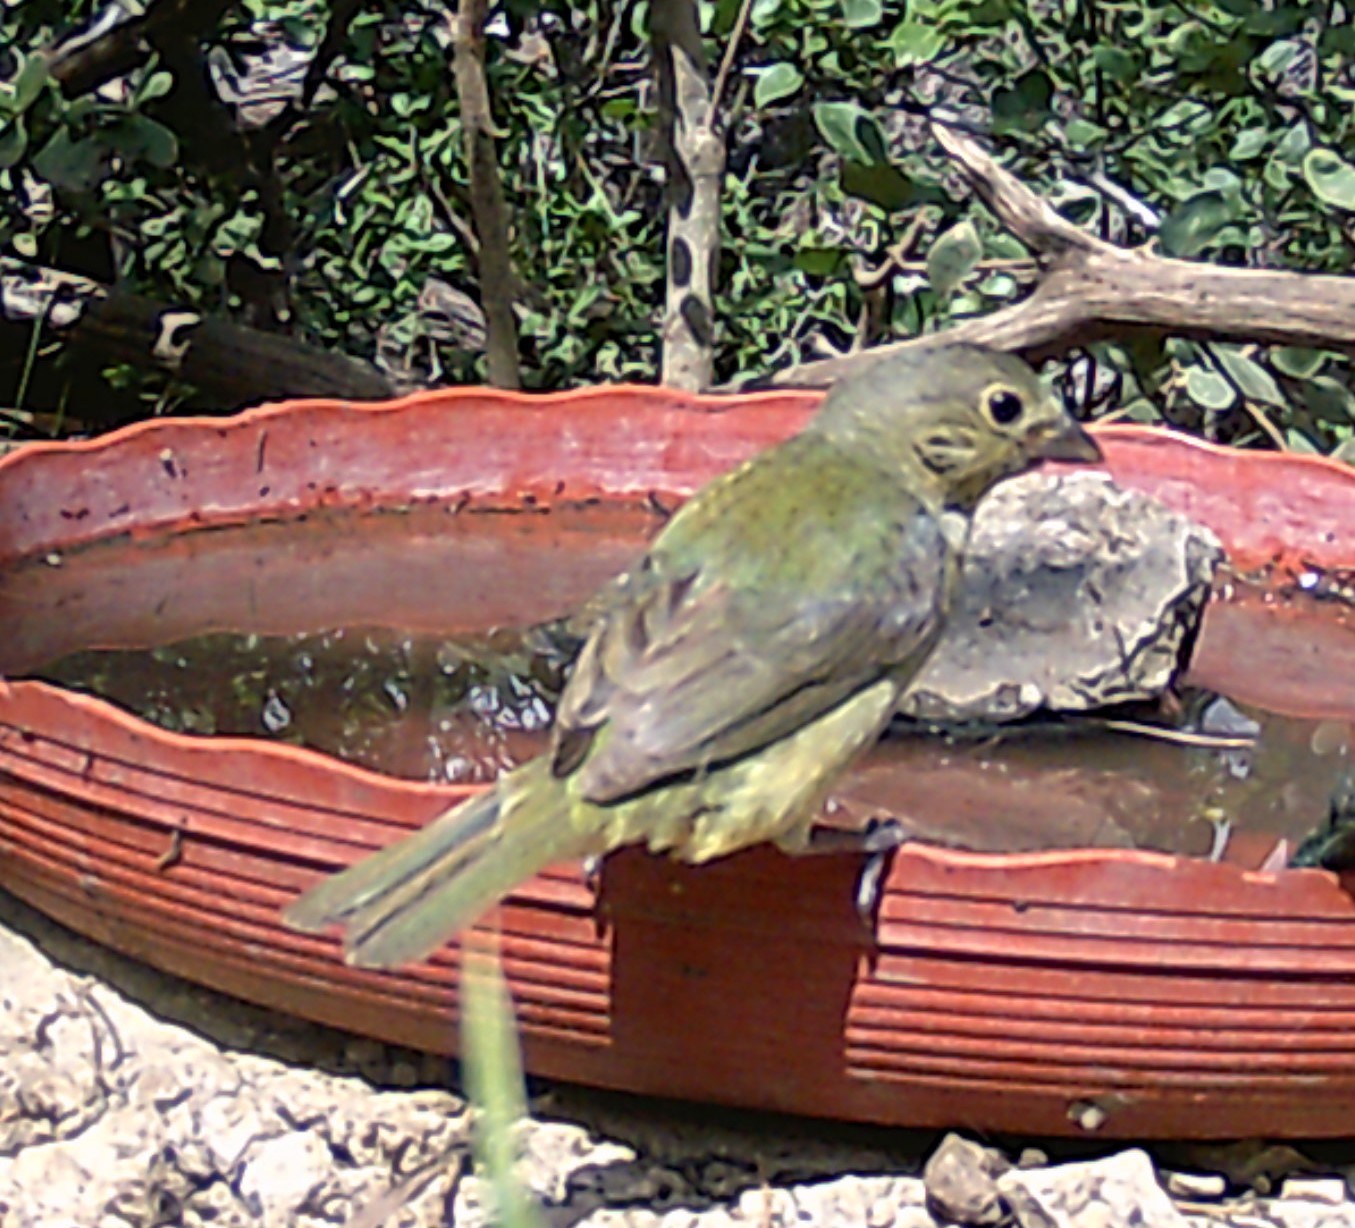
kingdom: Animalia
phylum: Chordata
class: Aves
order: Passeriformes
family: Cardinalidae
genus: Passerina
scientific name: Passerina ciris
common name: Painted bunting
